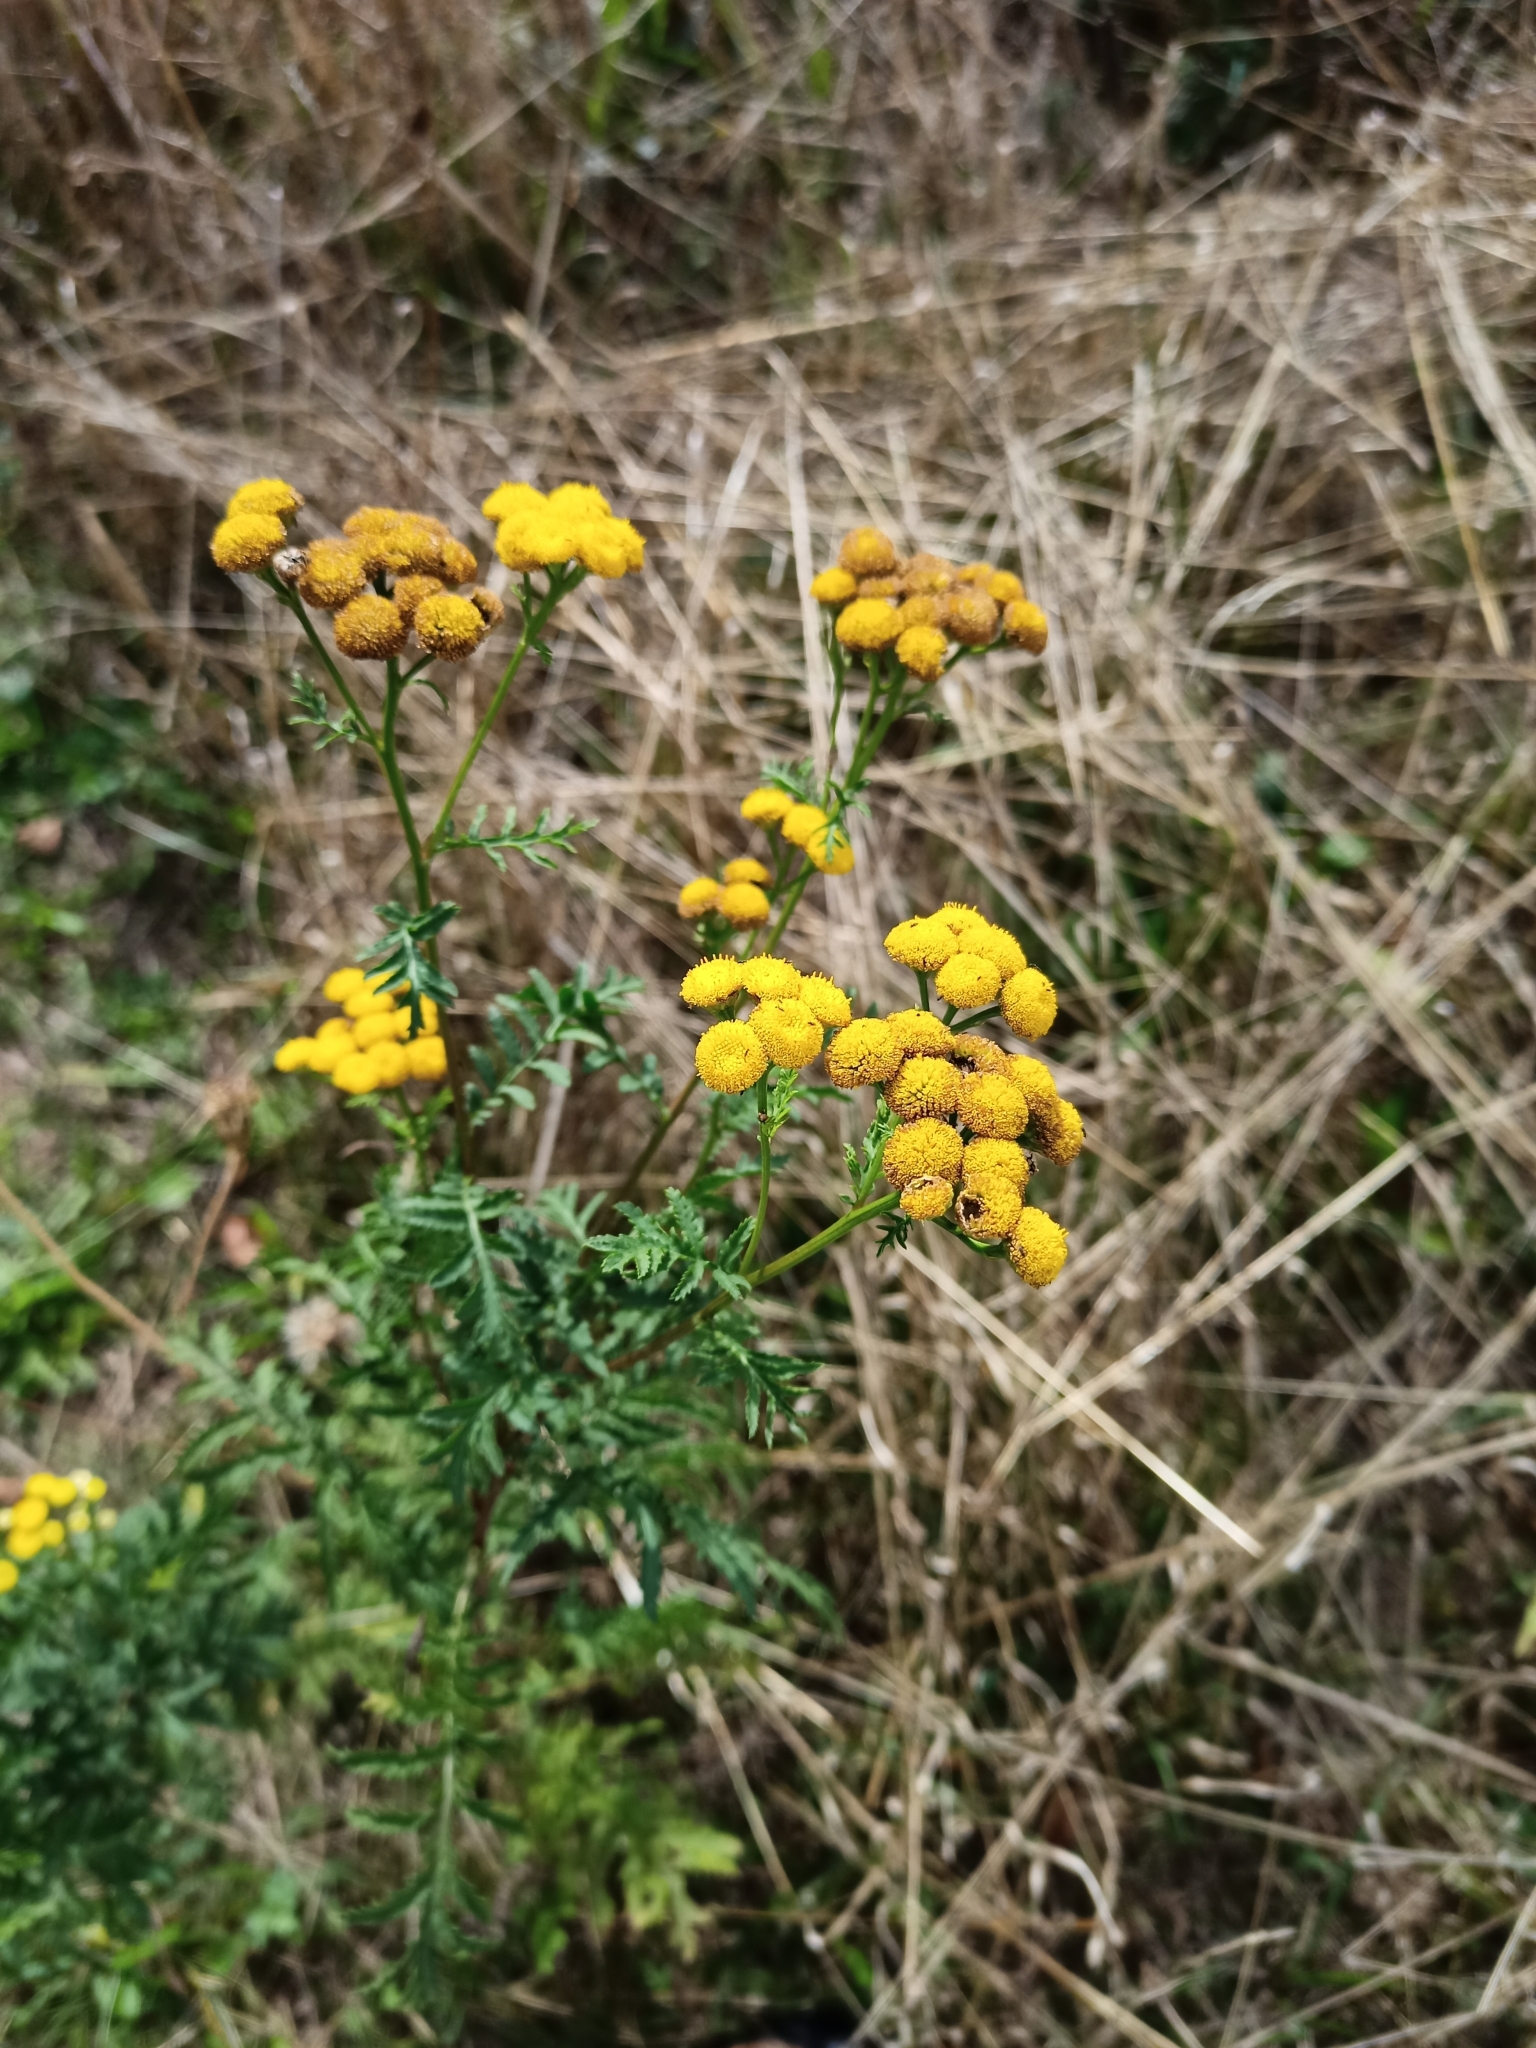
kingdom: Plantae
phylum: Tracheophyta
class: Magnoliopsida
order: Asterales
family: Asteraceae
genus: Tanacetum
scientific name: Tanacetum vulgare
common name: Common tansy
